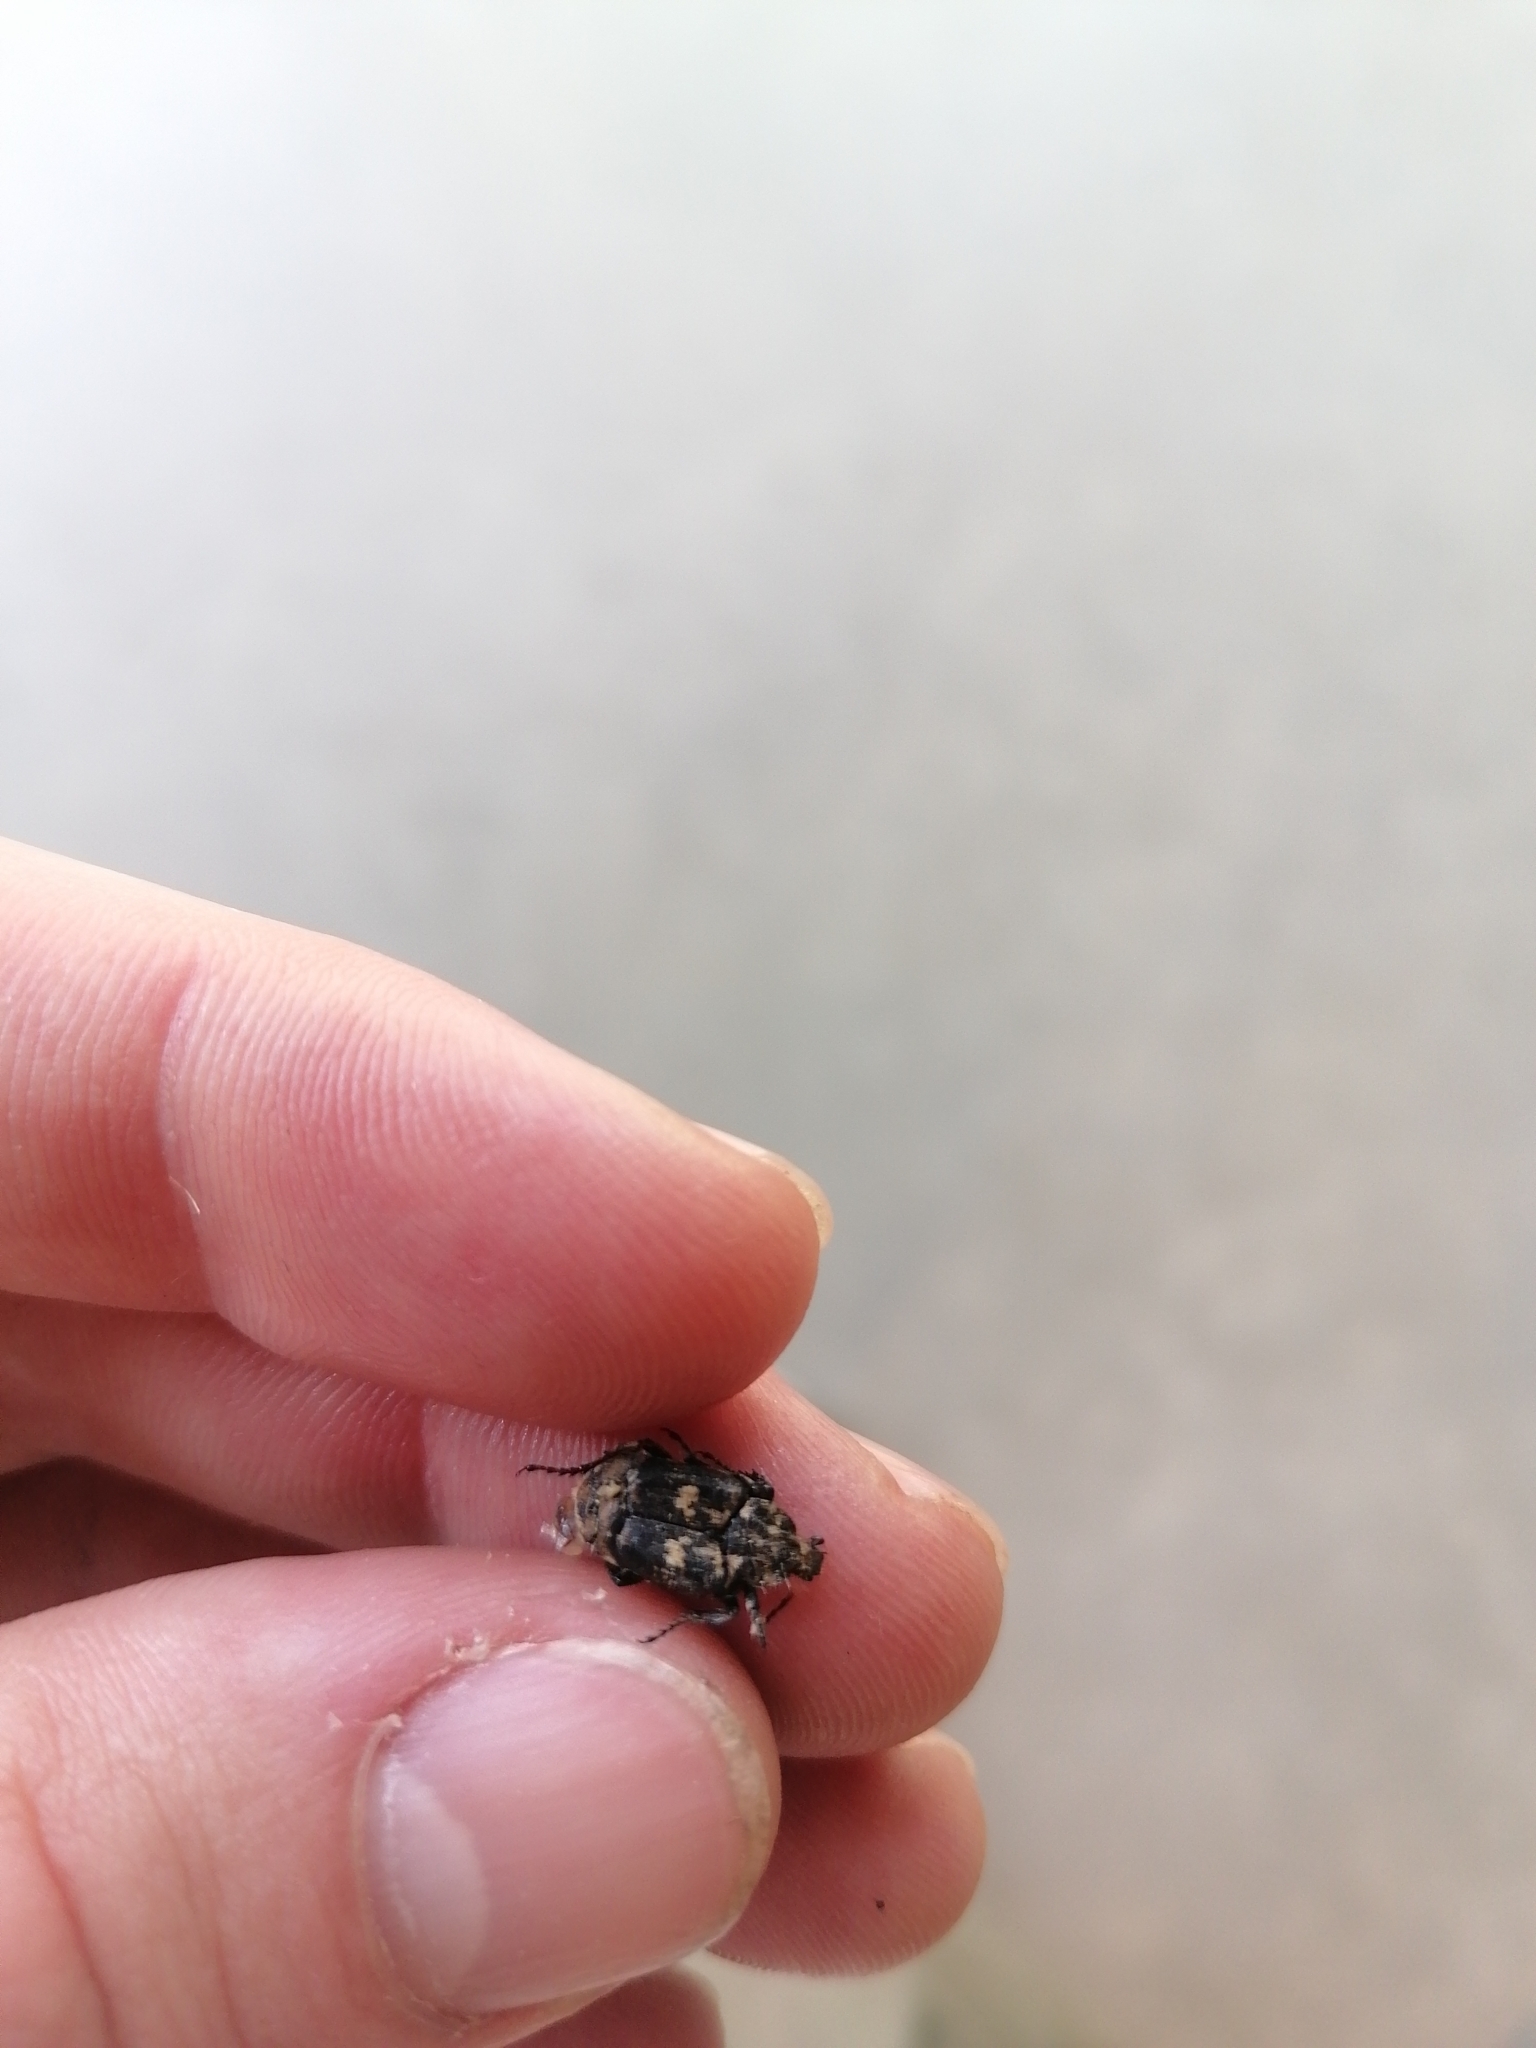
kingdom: Animalia
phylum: Arthropoda
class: Insecta
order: Coleoptera
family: Scarabaeidae
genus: Valgus
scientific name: Valgus hemipterus
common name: Bug flower chafer
